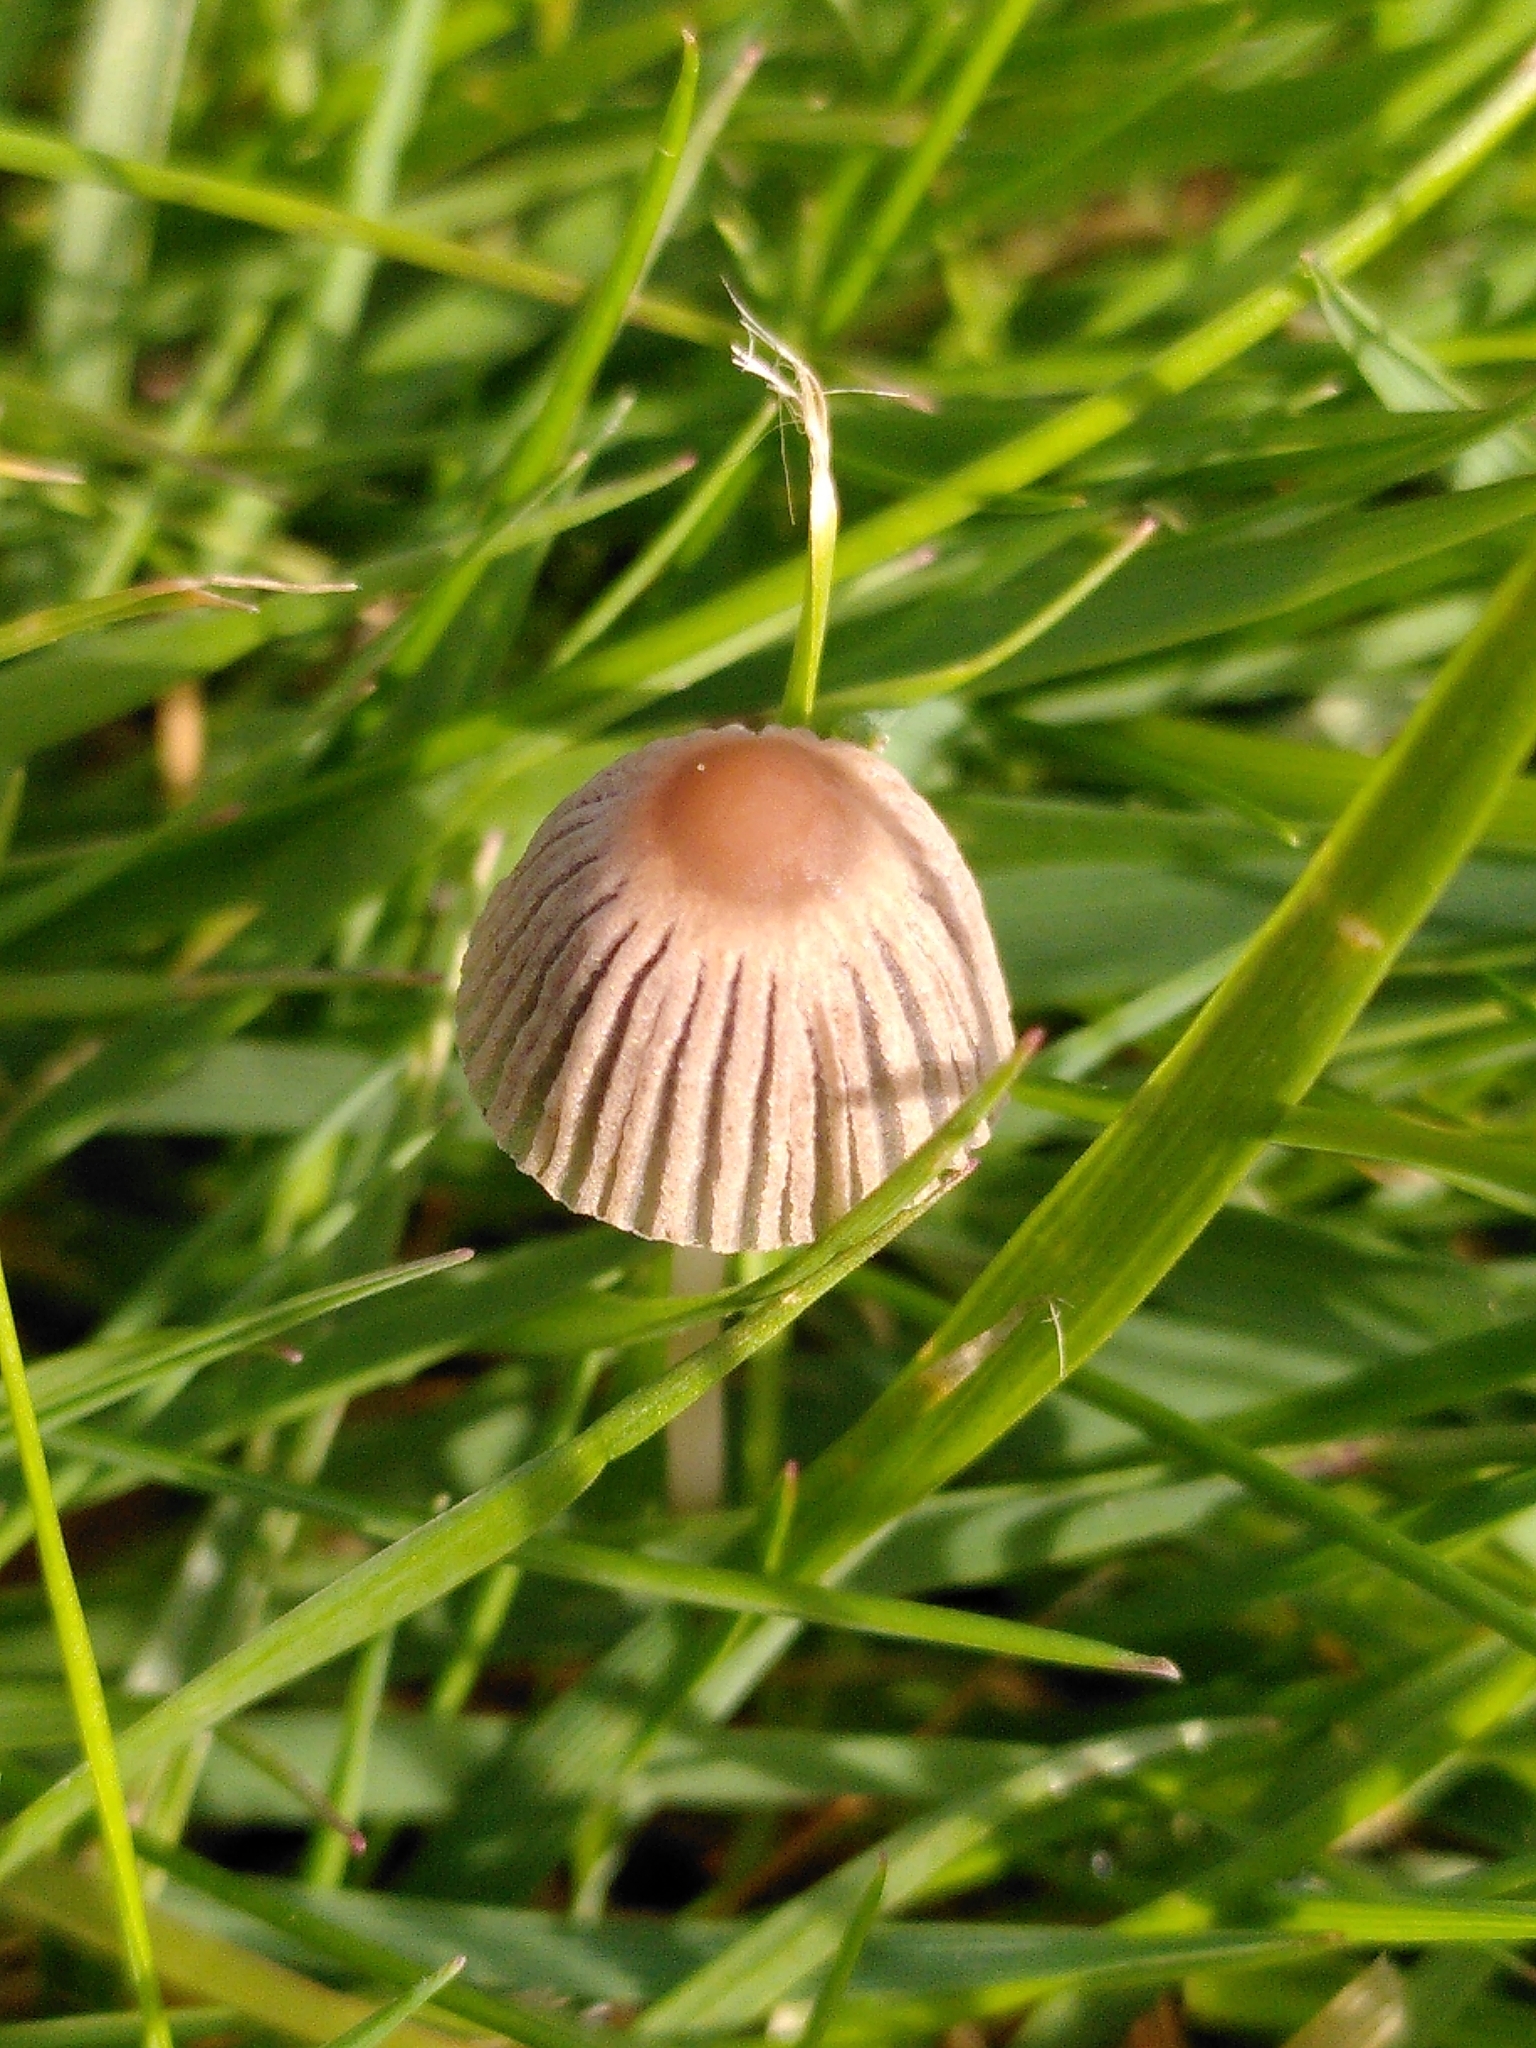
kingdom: Fungi
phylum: Basidiomycota
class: Agaricomycetes
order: Agaricales
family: Psathyrellaceae
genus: Parasola
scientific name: Parasola auricoma
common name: Goldenhaired inkcap
